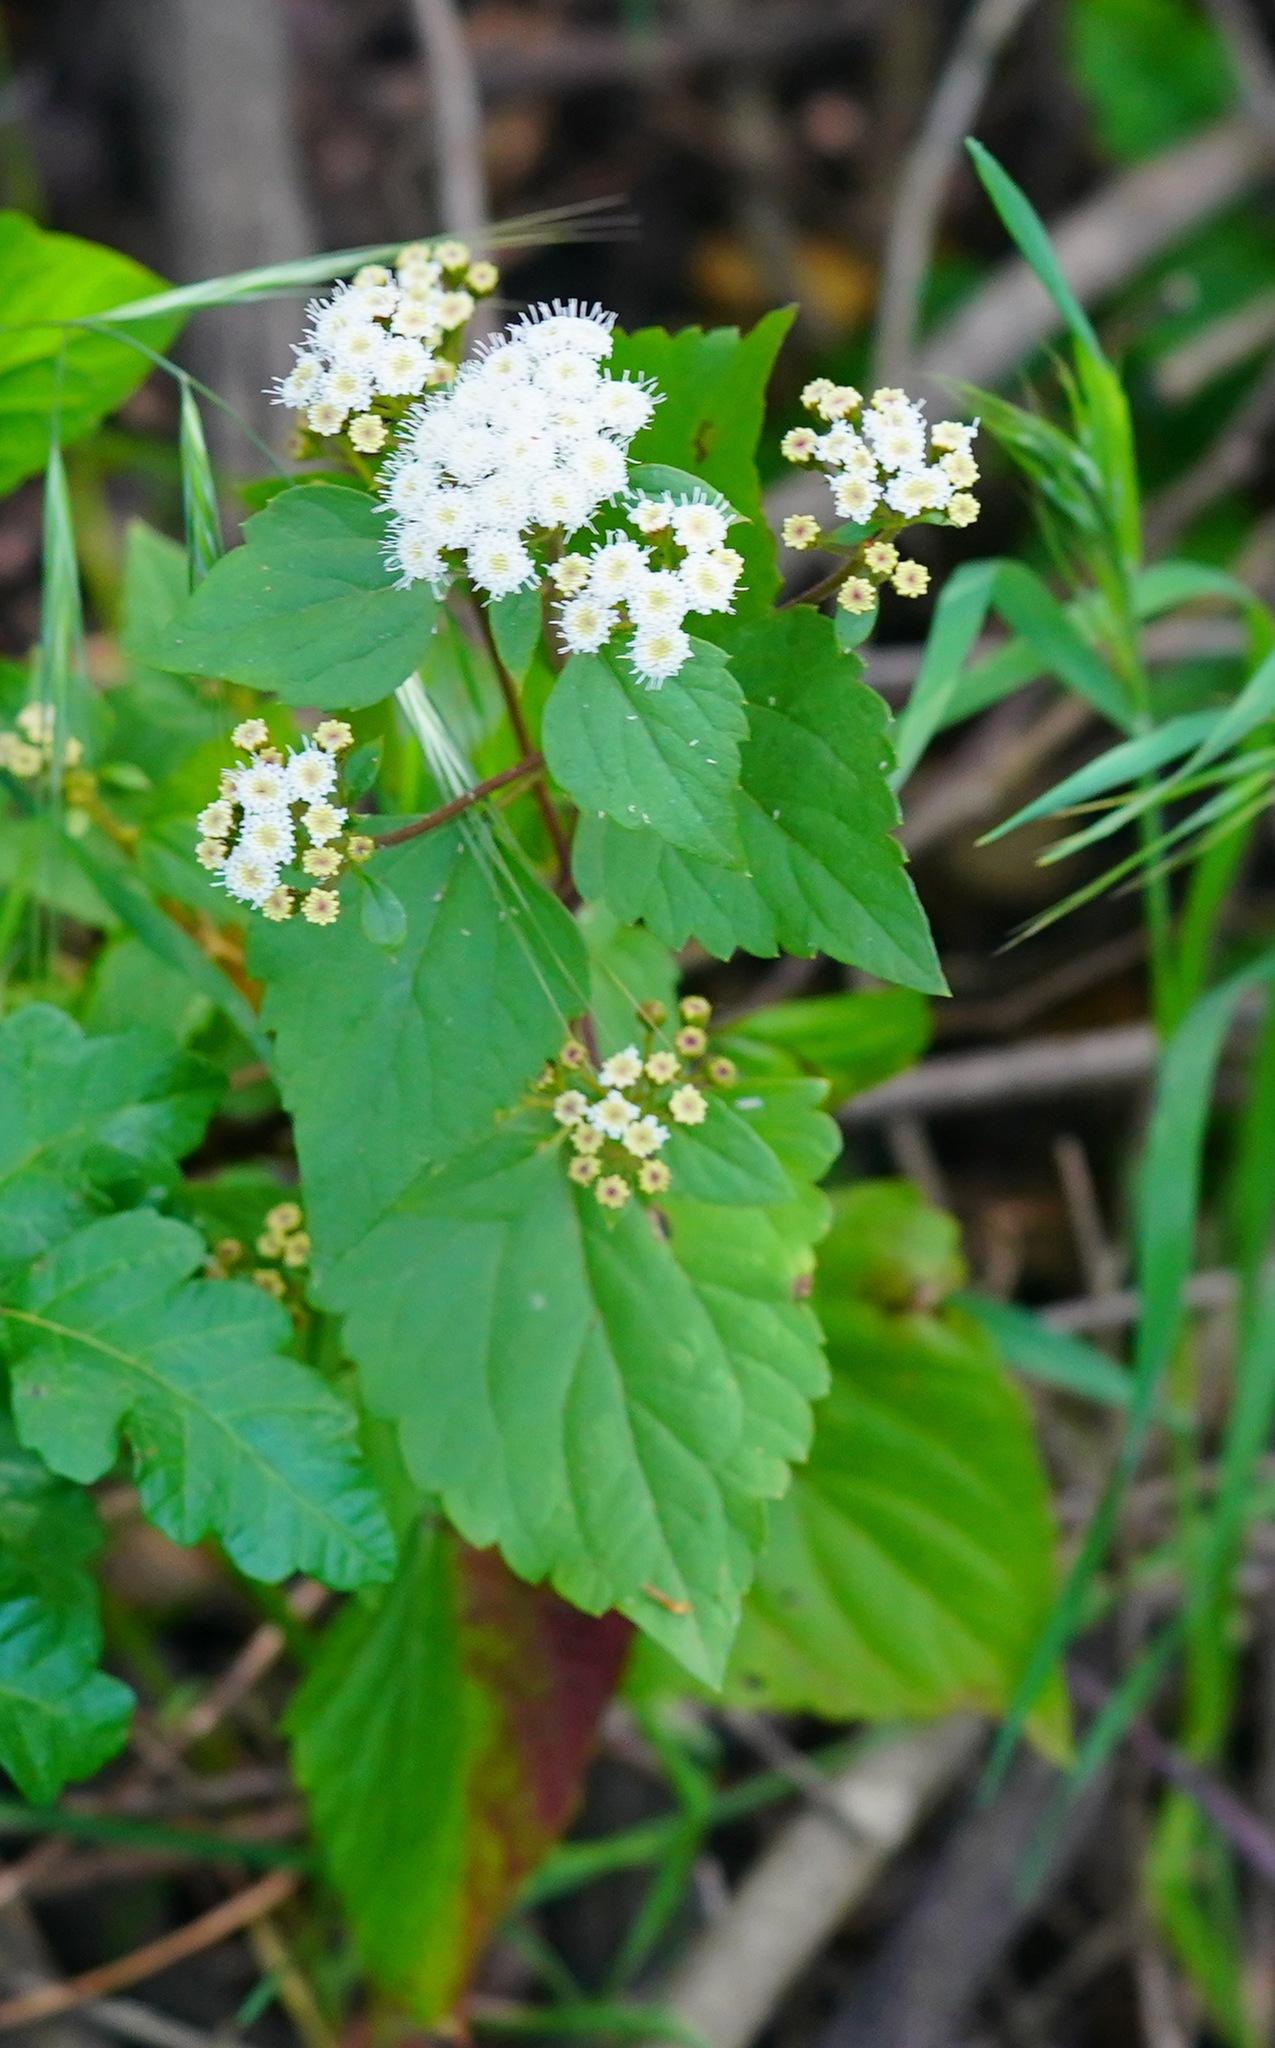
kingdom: Plantae
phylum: Tracheophyta
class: Magnoliopsida
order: Asterales
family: Asteraceae
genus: Ageratina
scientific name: Ageratina adenophora
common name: Sticky snakeroot
